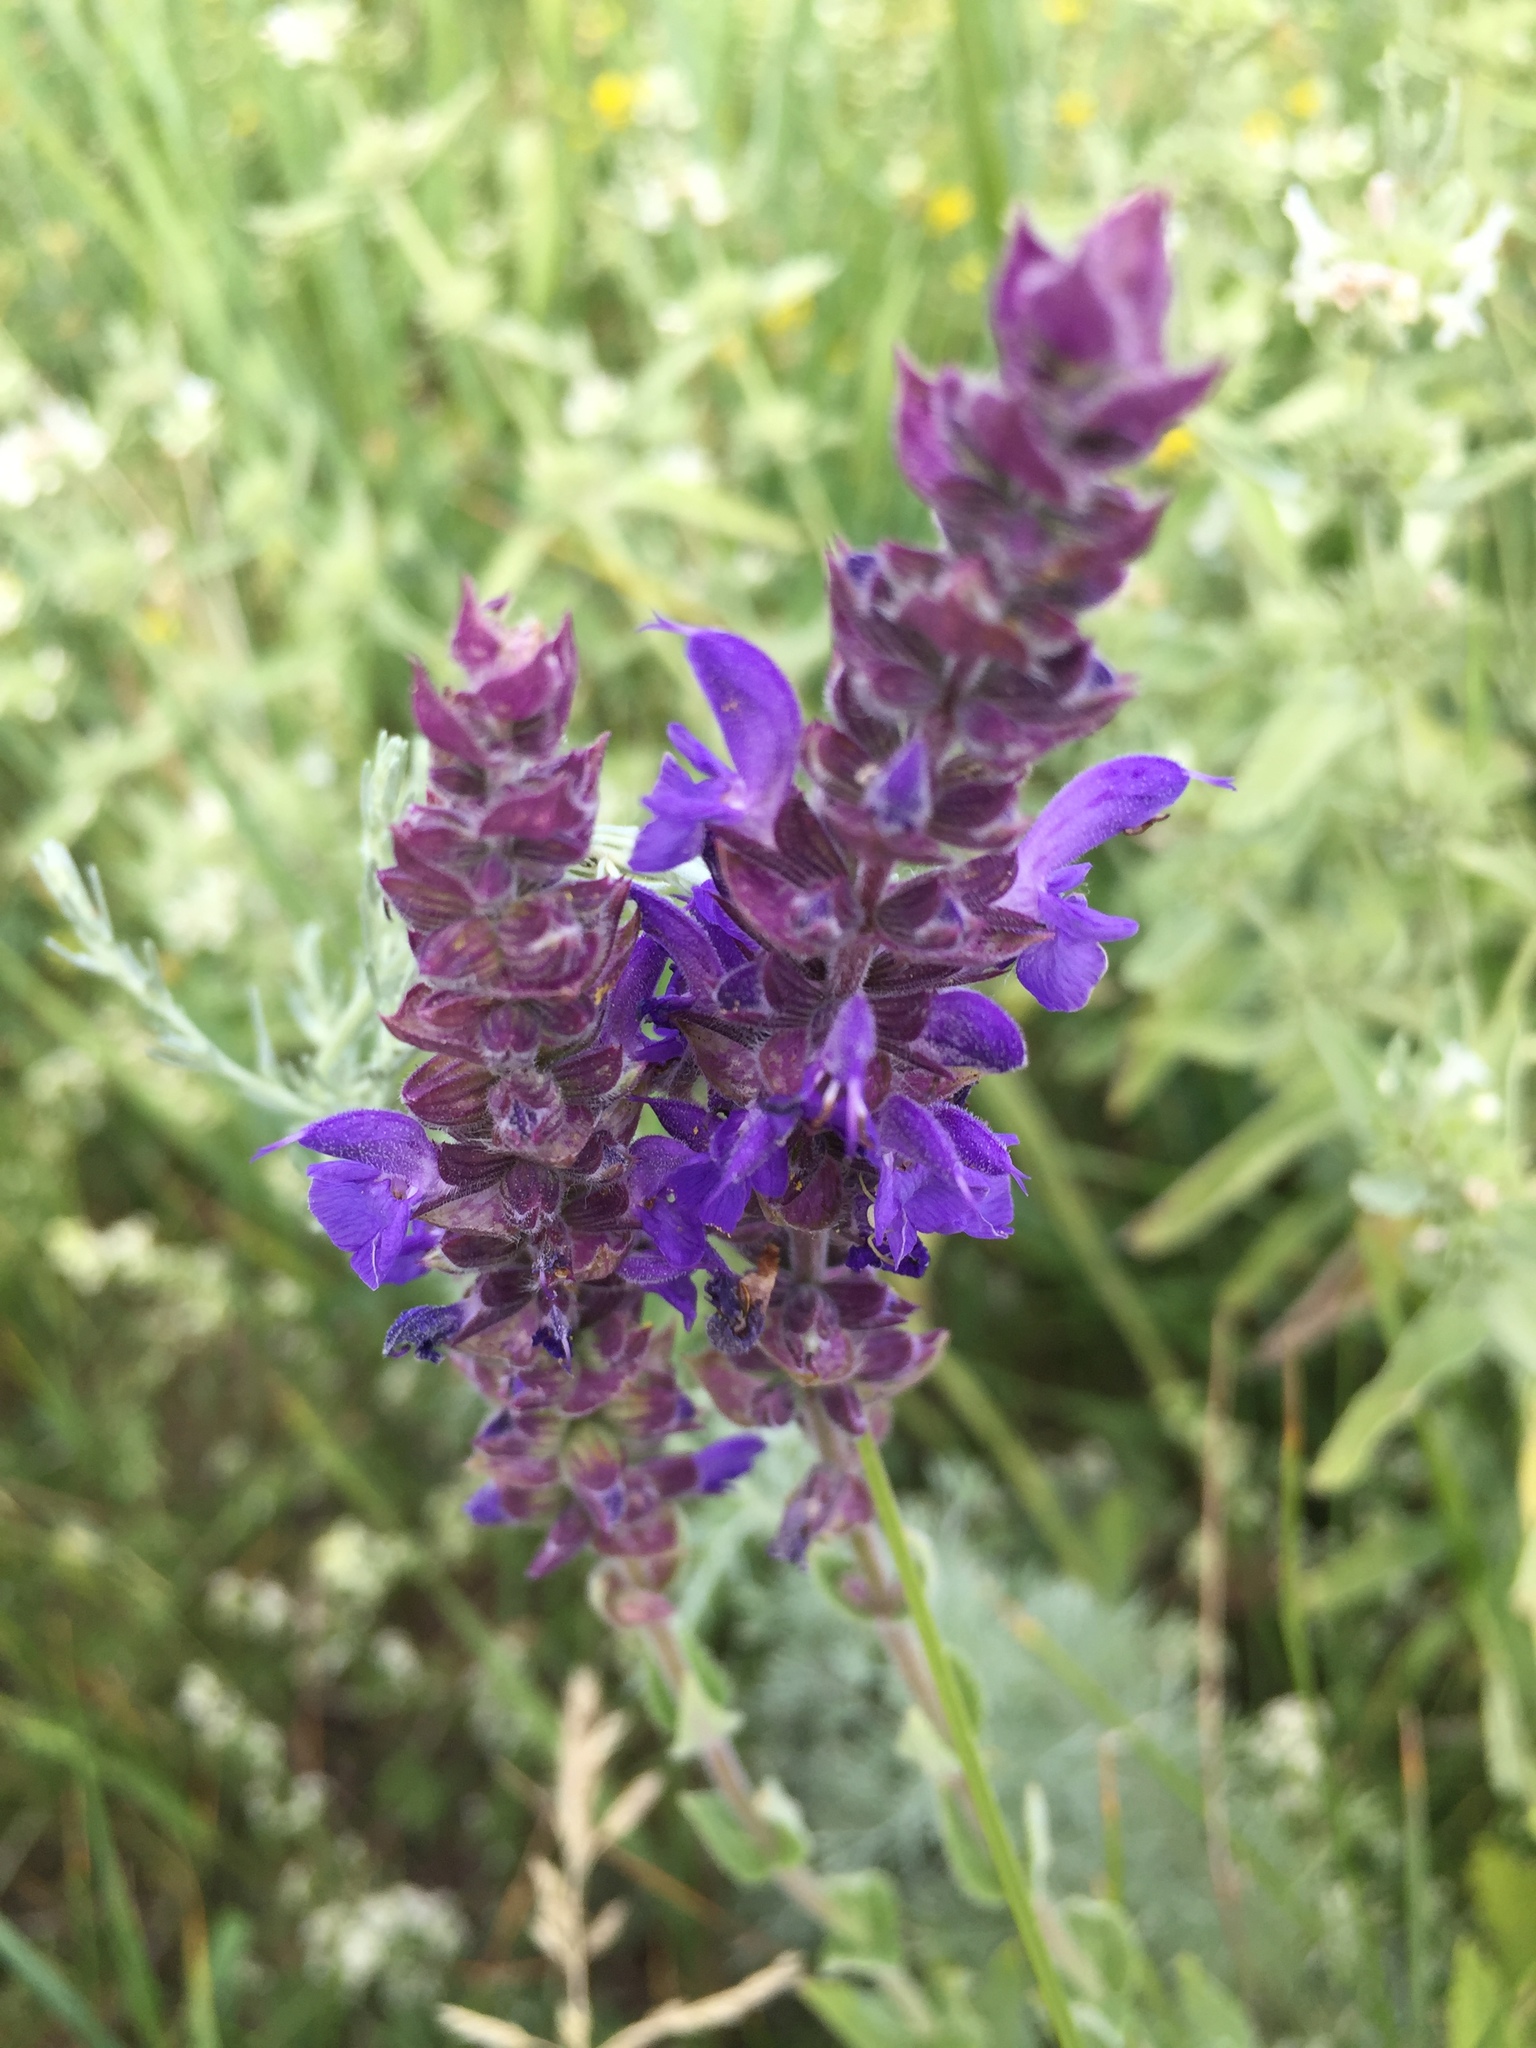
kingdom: Plantae
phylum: Tracheophyta
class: Magnoliopsida
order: Lamiales
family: Lamiaceae
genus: Salvia
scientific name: Salvia nemorosa
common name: Balkan clary
